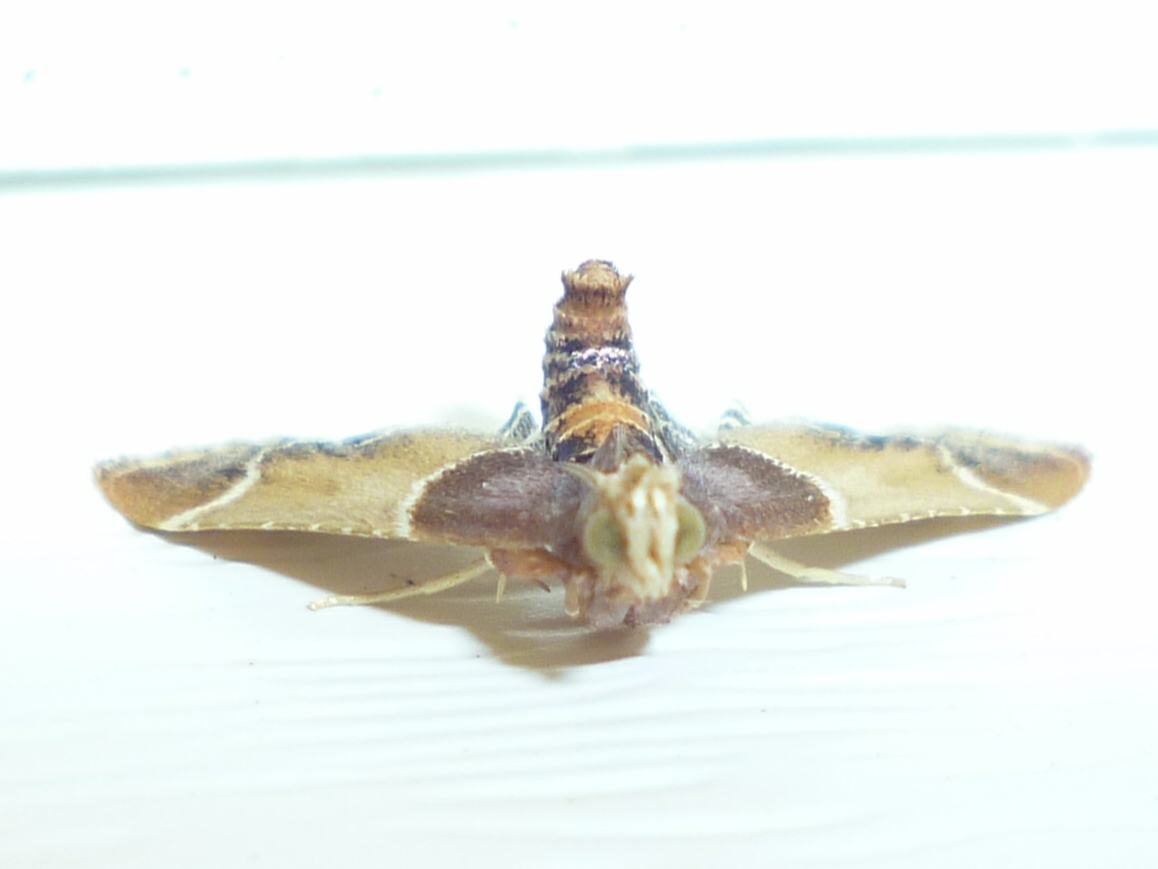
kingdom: Animalia
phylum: Arthropoda
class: Insecta
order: Lepidoptera
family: Pyralidae
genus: Pyralis
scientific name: Pyralis farinalis
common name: Meal moth
